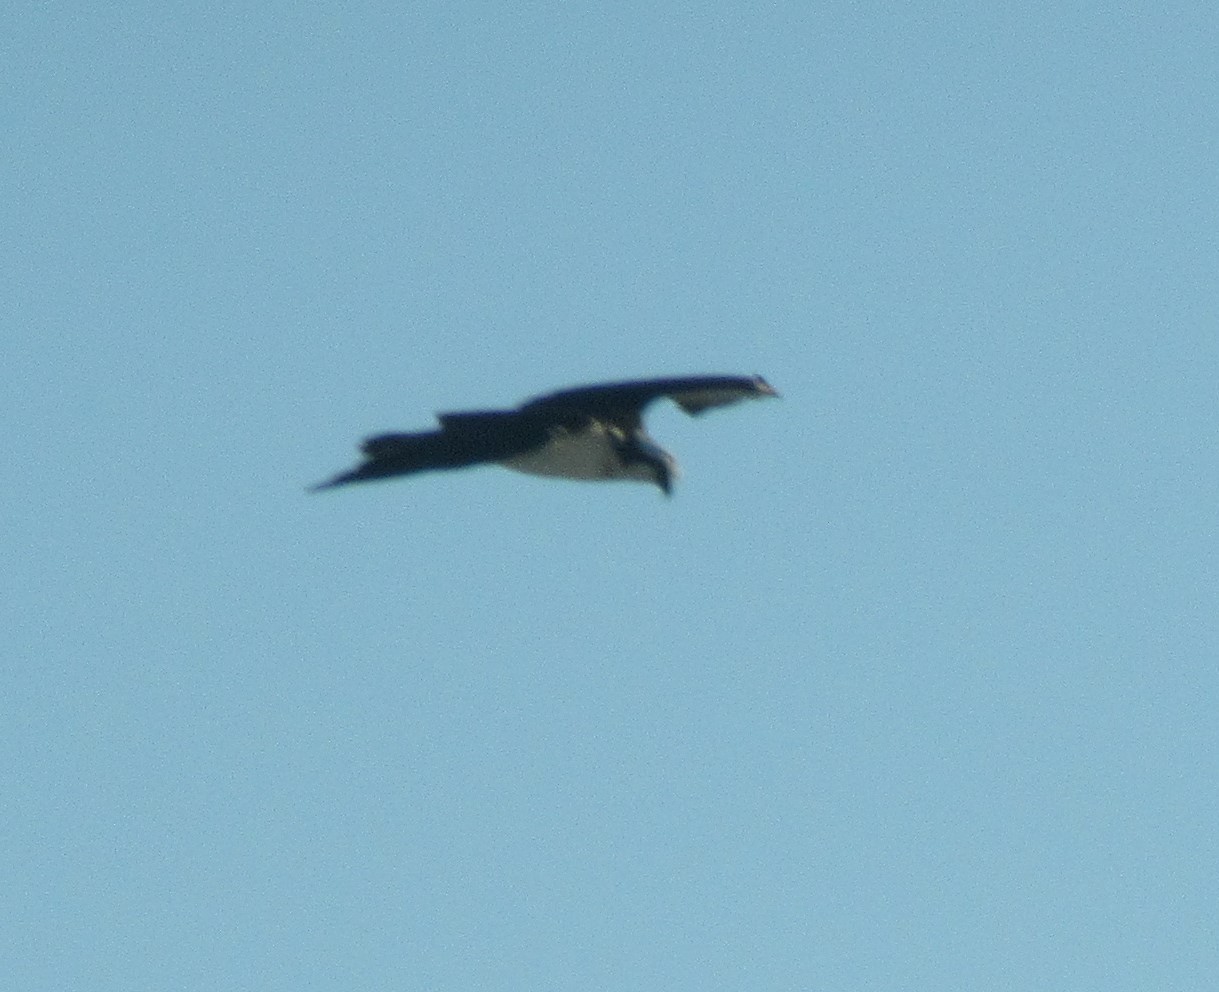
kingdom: Animalia
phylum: Chordata
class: Aves
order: Accipitriformes
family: Pandionidae
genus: Pandion
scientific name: Pandion haliaetus
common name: Osprey
